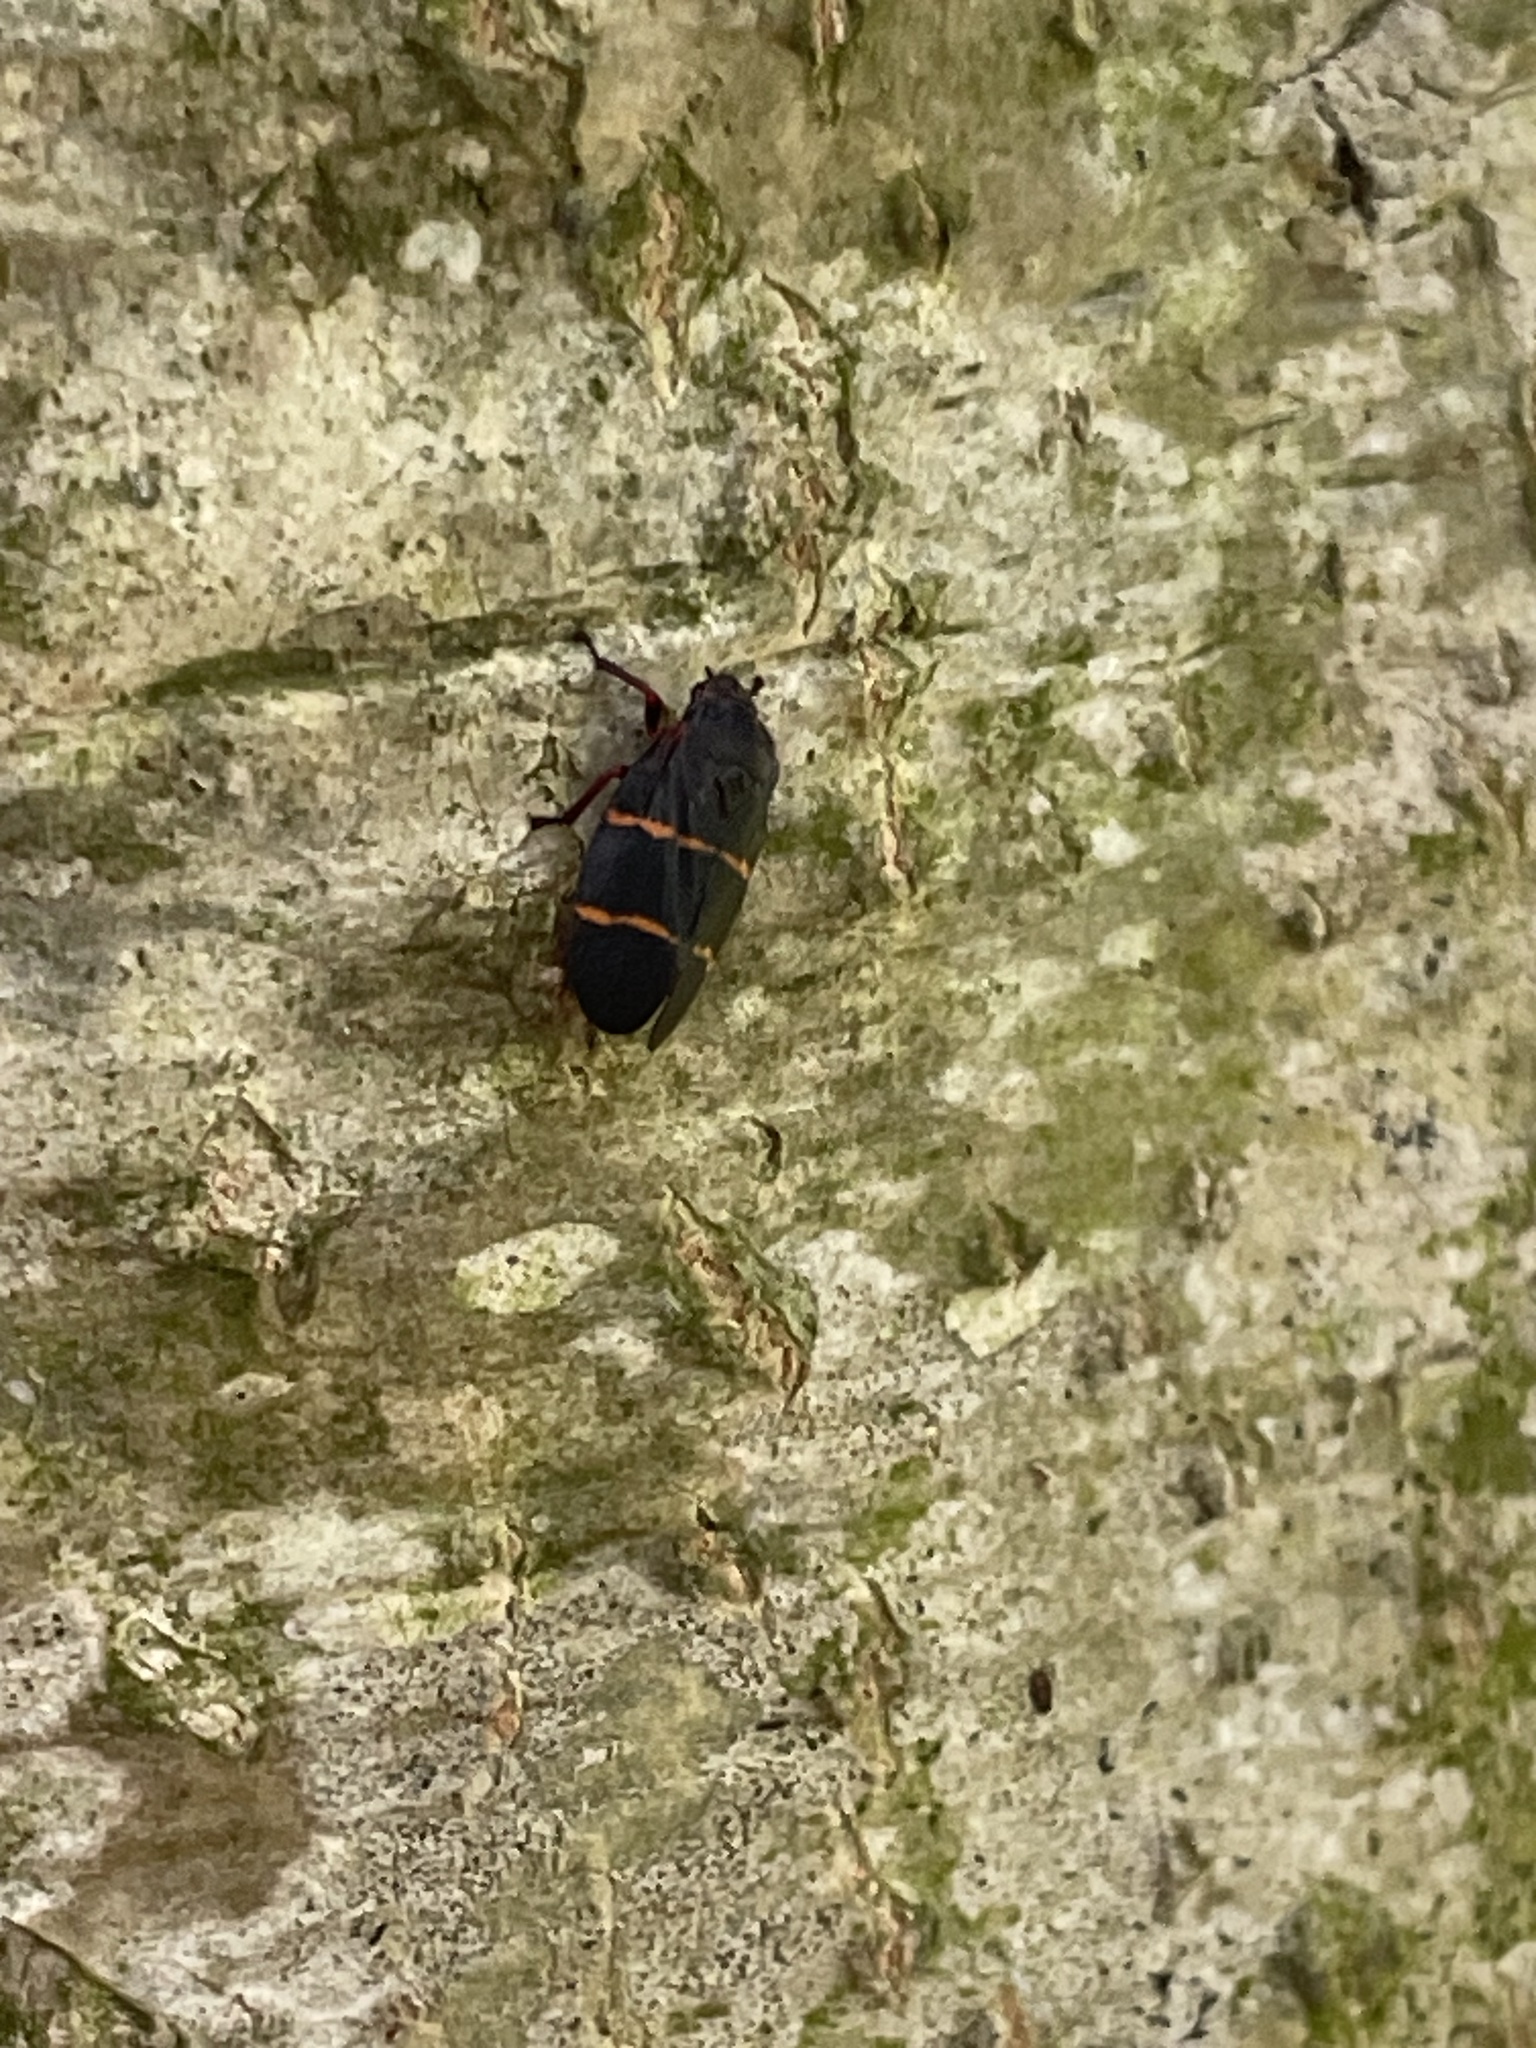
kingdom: Animalia
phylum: Arthropoda
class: Insecta
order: Hemiptera
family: Cercopidae
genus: Prosapia
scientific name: Prosapia bicincta
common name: Twolined spittlebug
